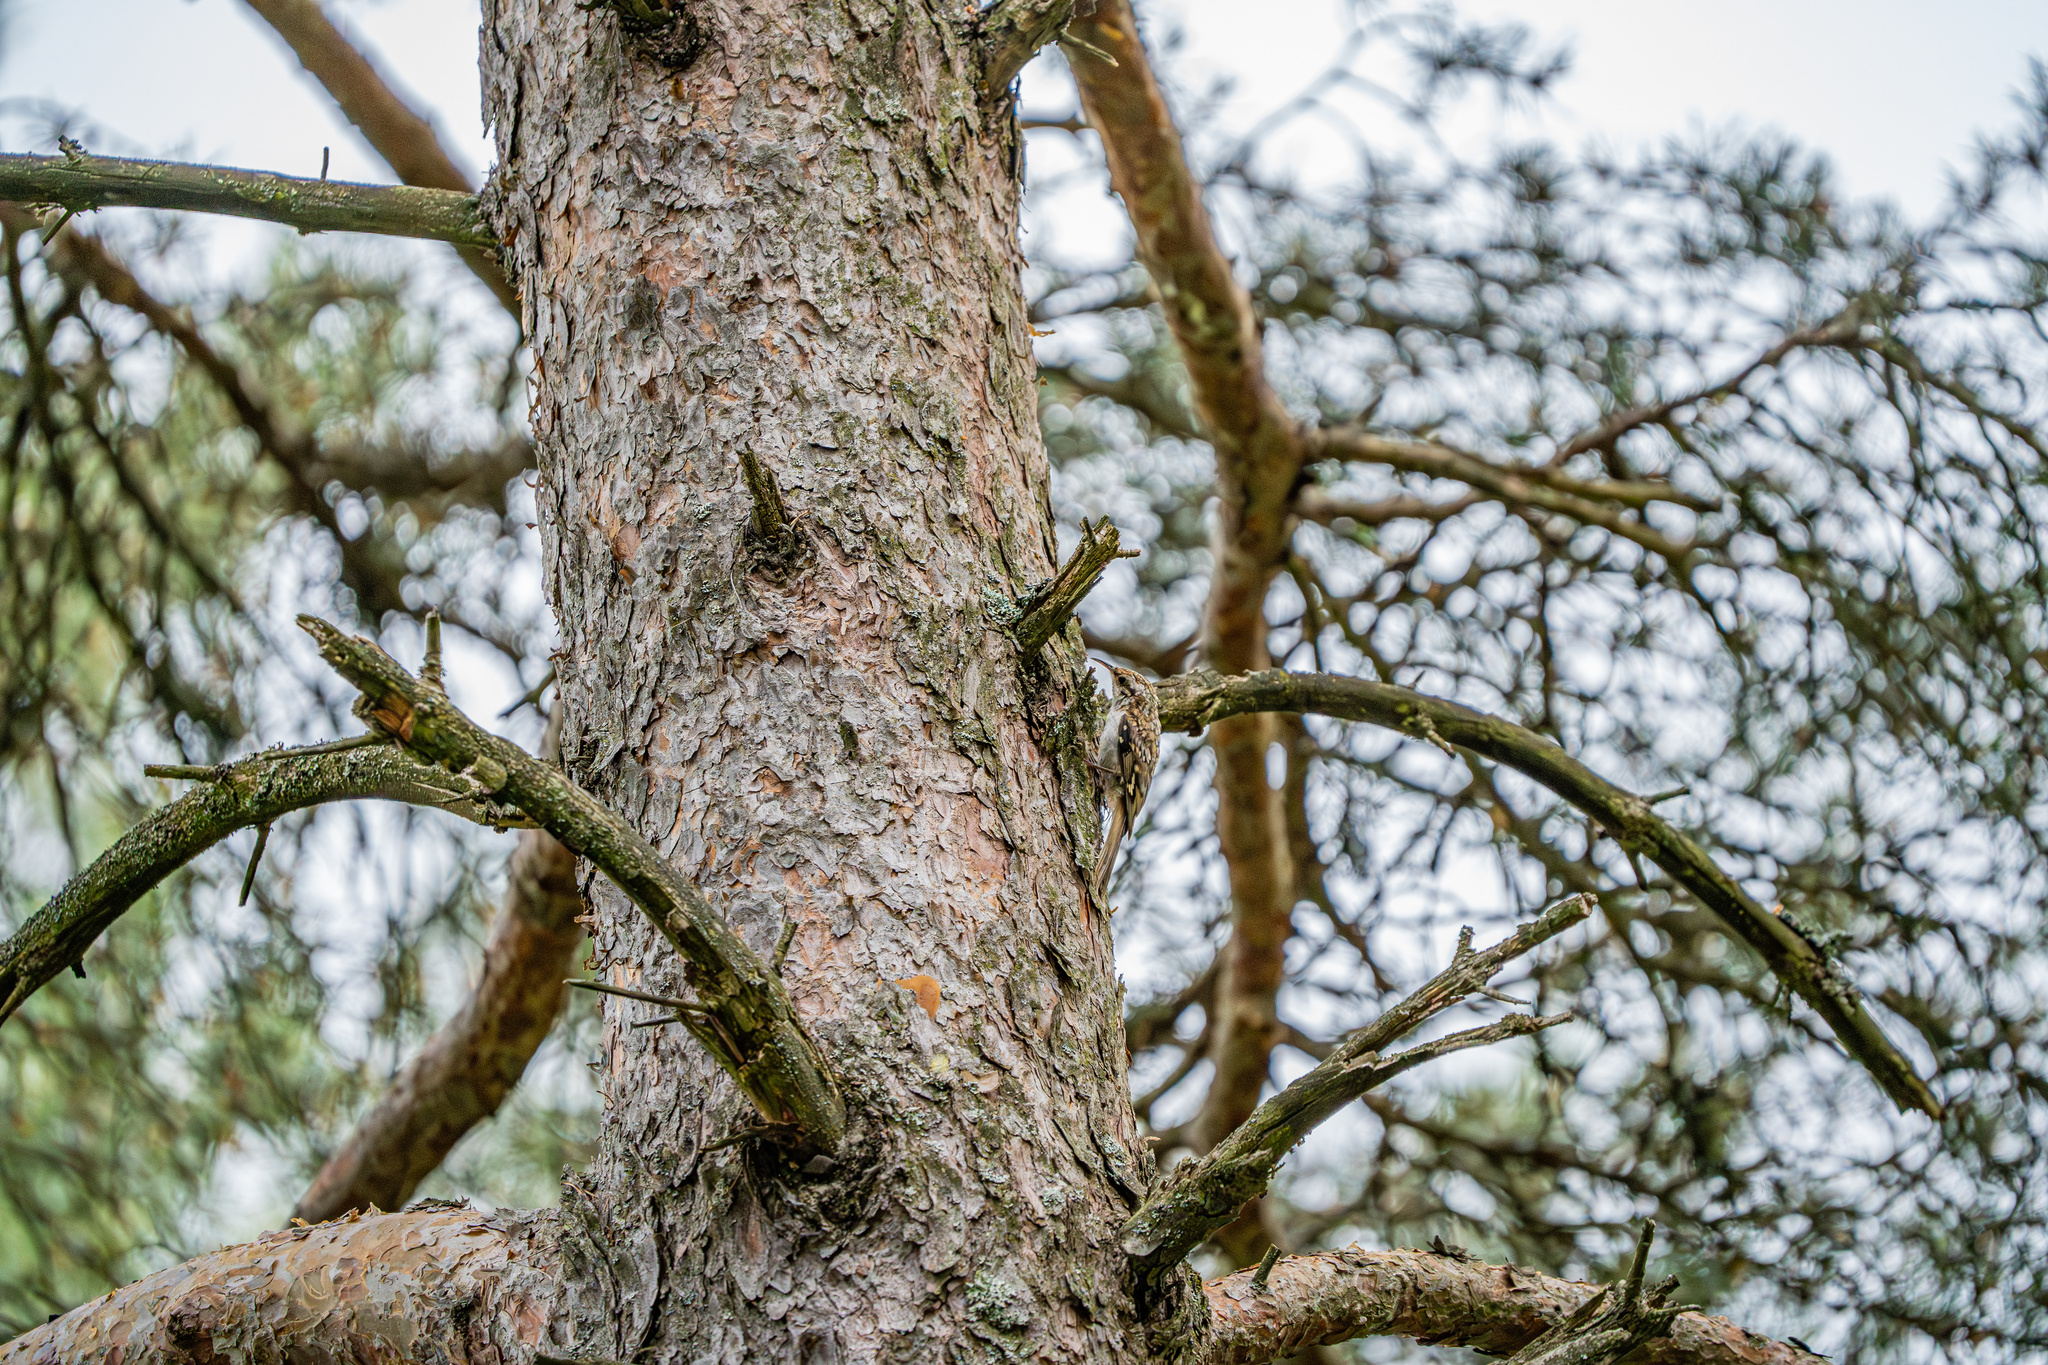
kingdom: Animalia
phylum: Chordata
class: Aves
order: Passeriformes
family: Certhiidae
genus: Certhia
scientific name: Certhia familiaris
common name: Eurasian treecreeper
